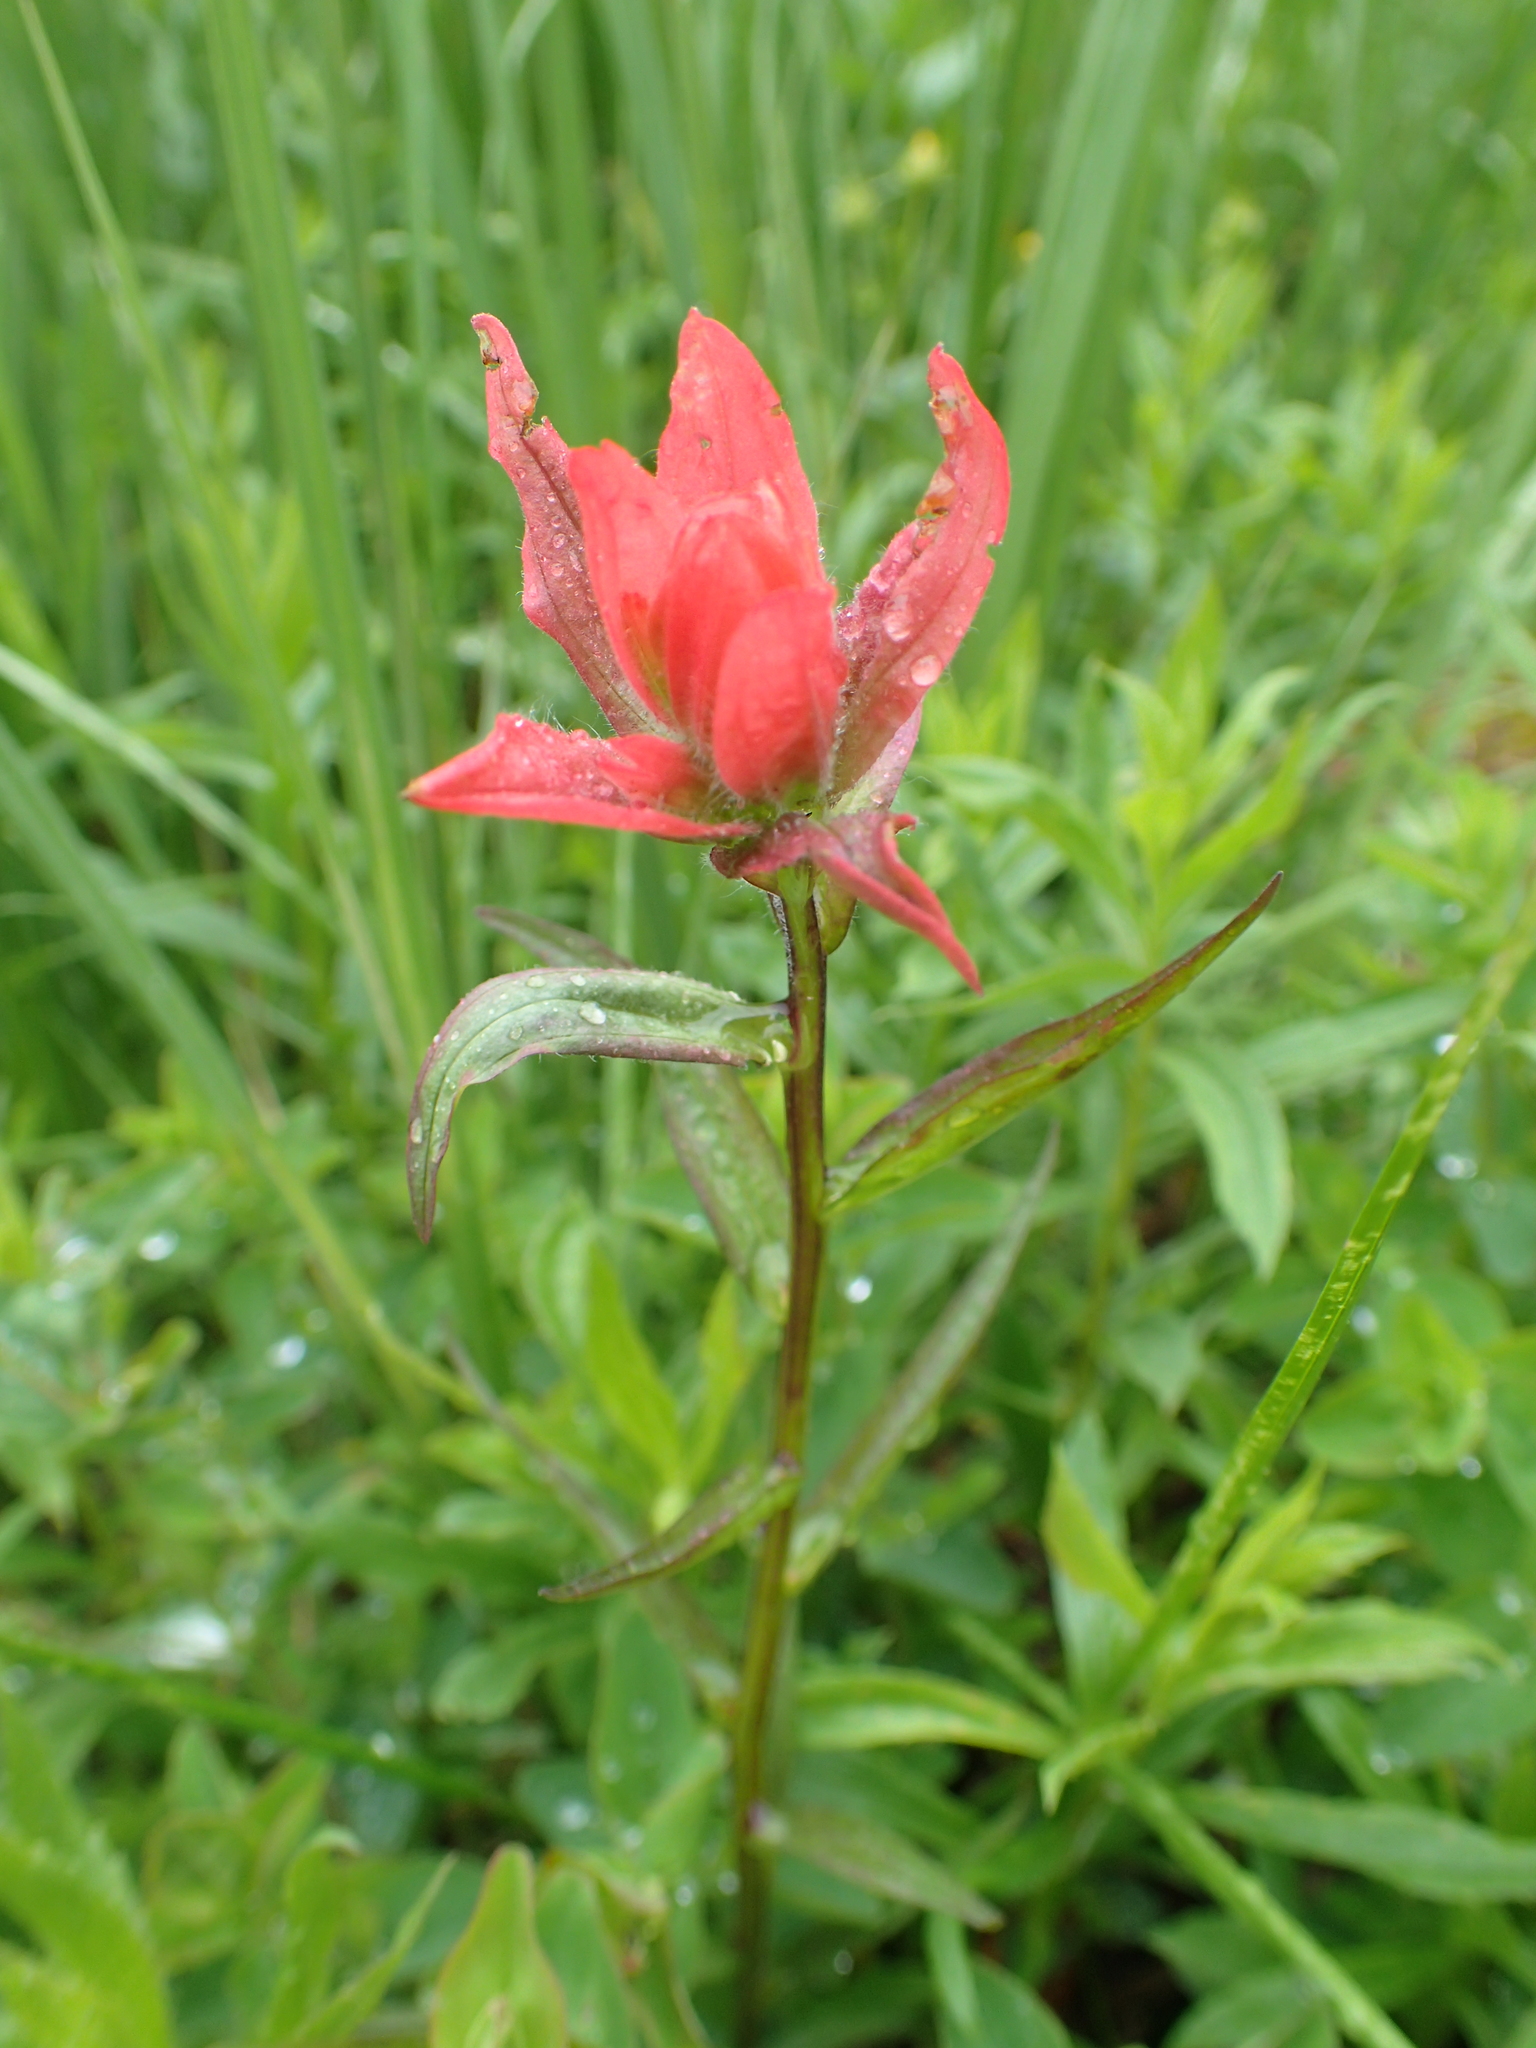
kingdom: Plantae
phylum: Tracheophyta
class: Magnoliopsida
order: Lamiales
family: Orobanchaceae
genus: Castilleja
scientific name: Castilleja miniata
